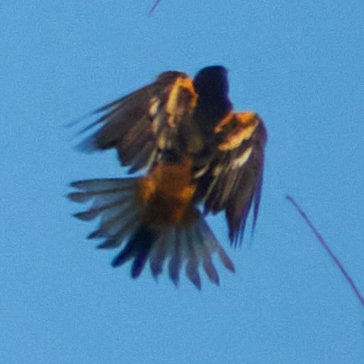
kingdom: Animalia
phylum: Chordata
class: Aves
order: Passeriformes
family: Icteridae
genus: Icterus
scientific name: Icterus galbula
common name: Baltimore oriole
